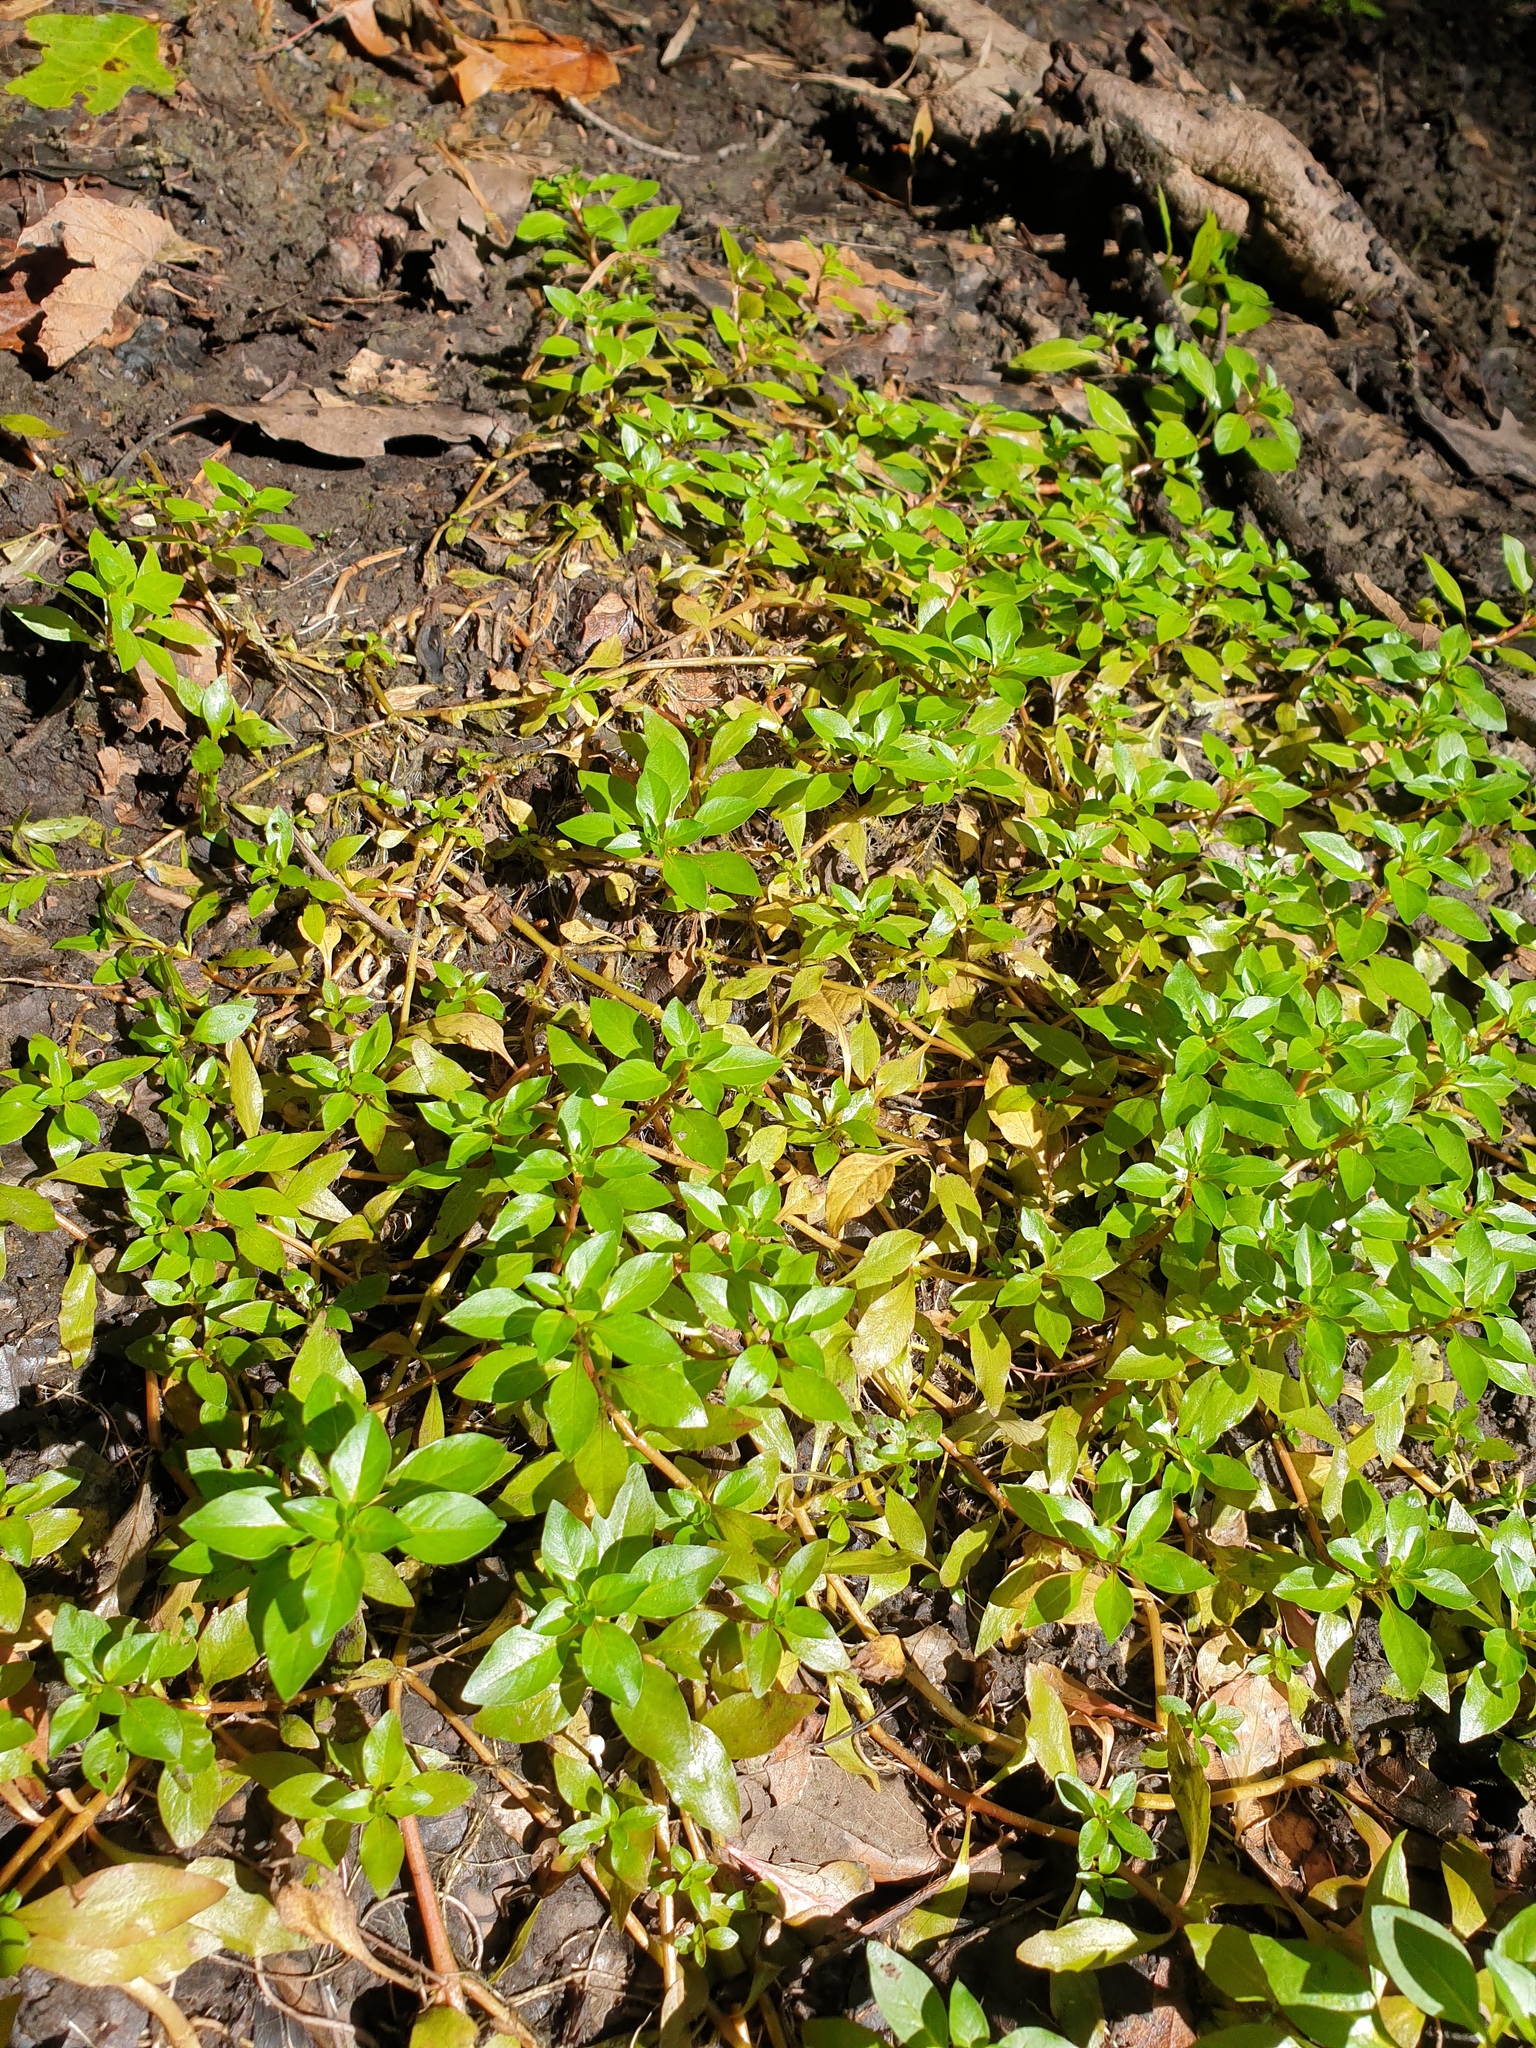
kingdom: Plantae
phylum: Tracheophyta
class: Magnoliopsida
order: Myrtales
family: Onagraceae
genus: Ludwigia
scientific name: Ludwigia palustris
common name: Hampshire-purslane
